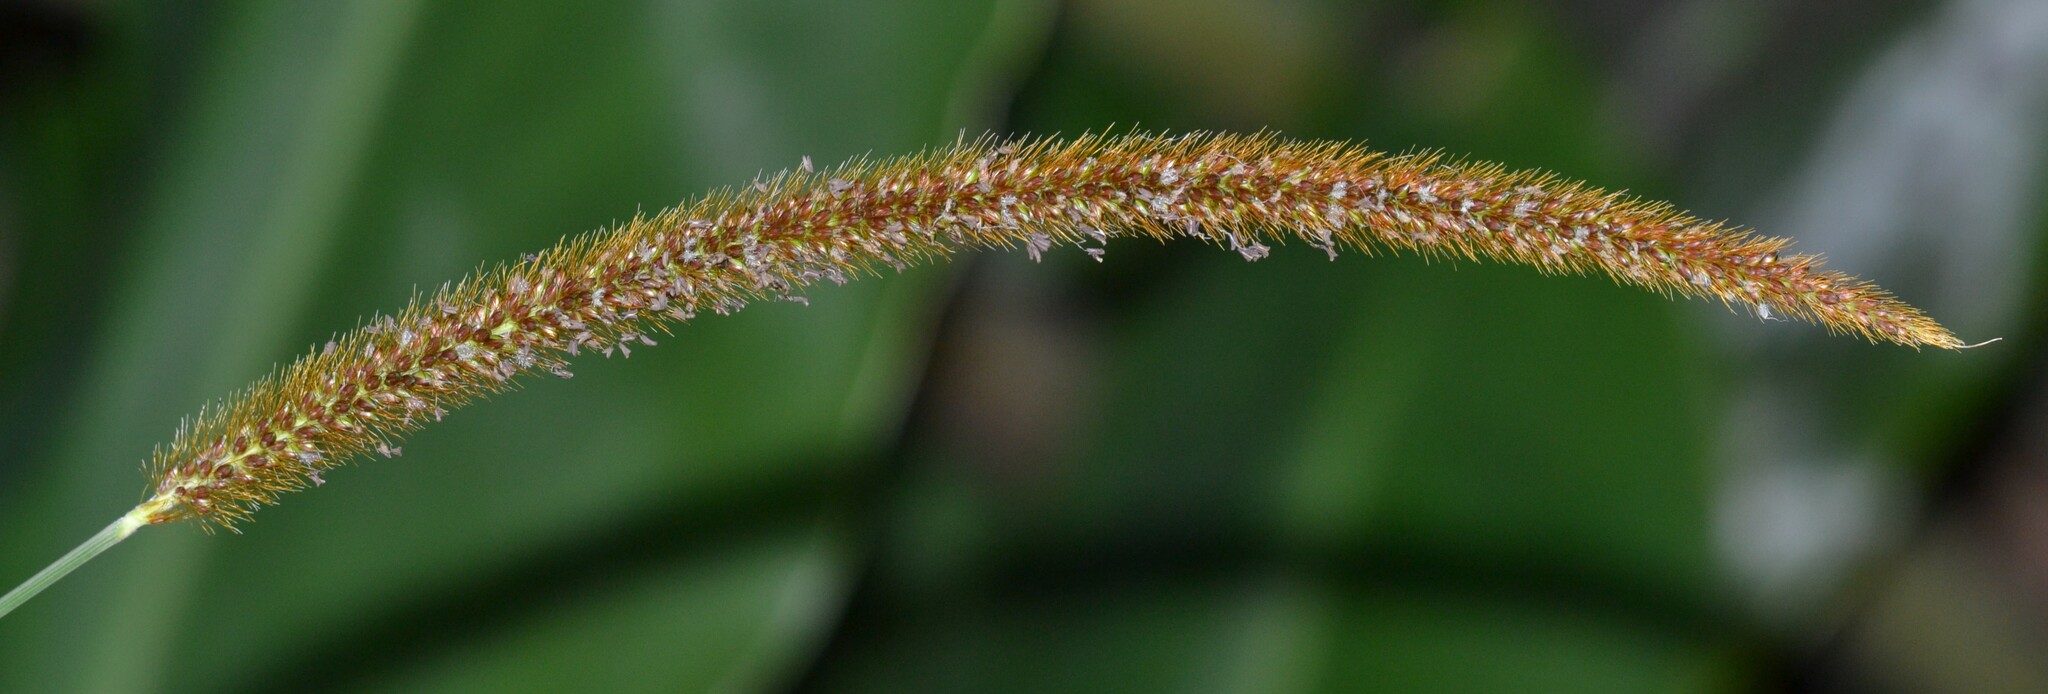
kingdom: Plantae
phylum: Tracheophyta
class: Liliopsida
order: Poales
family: Poaceae
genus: Setaria
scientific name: Setaria sphacelata
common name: African bristlegrass
